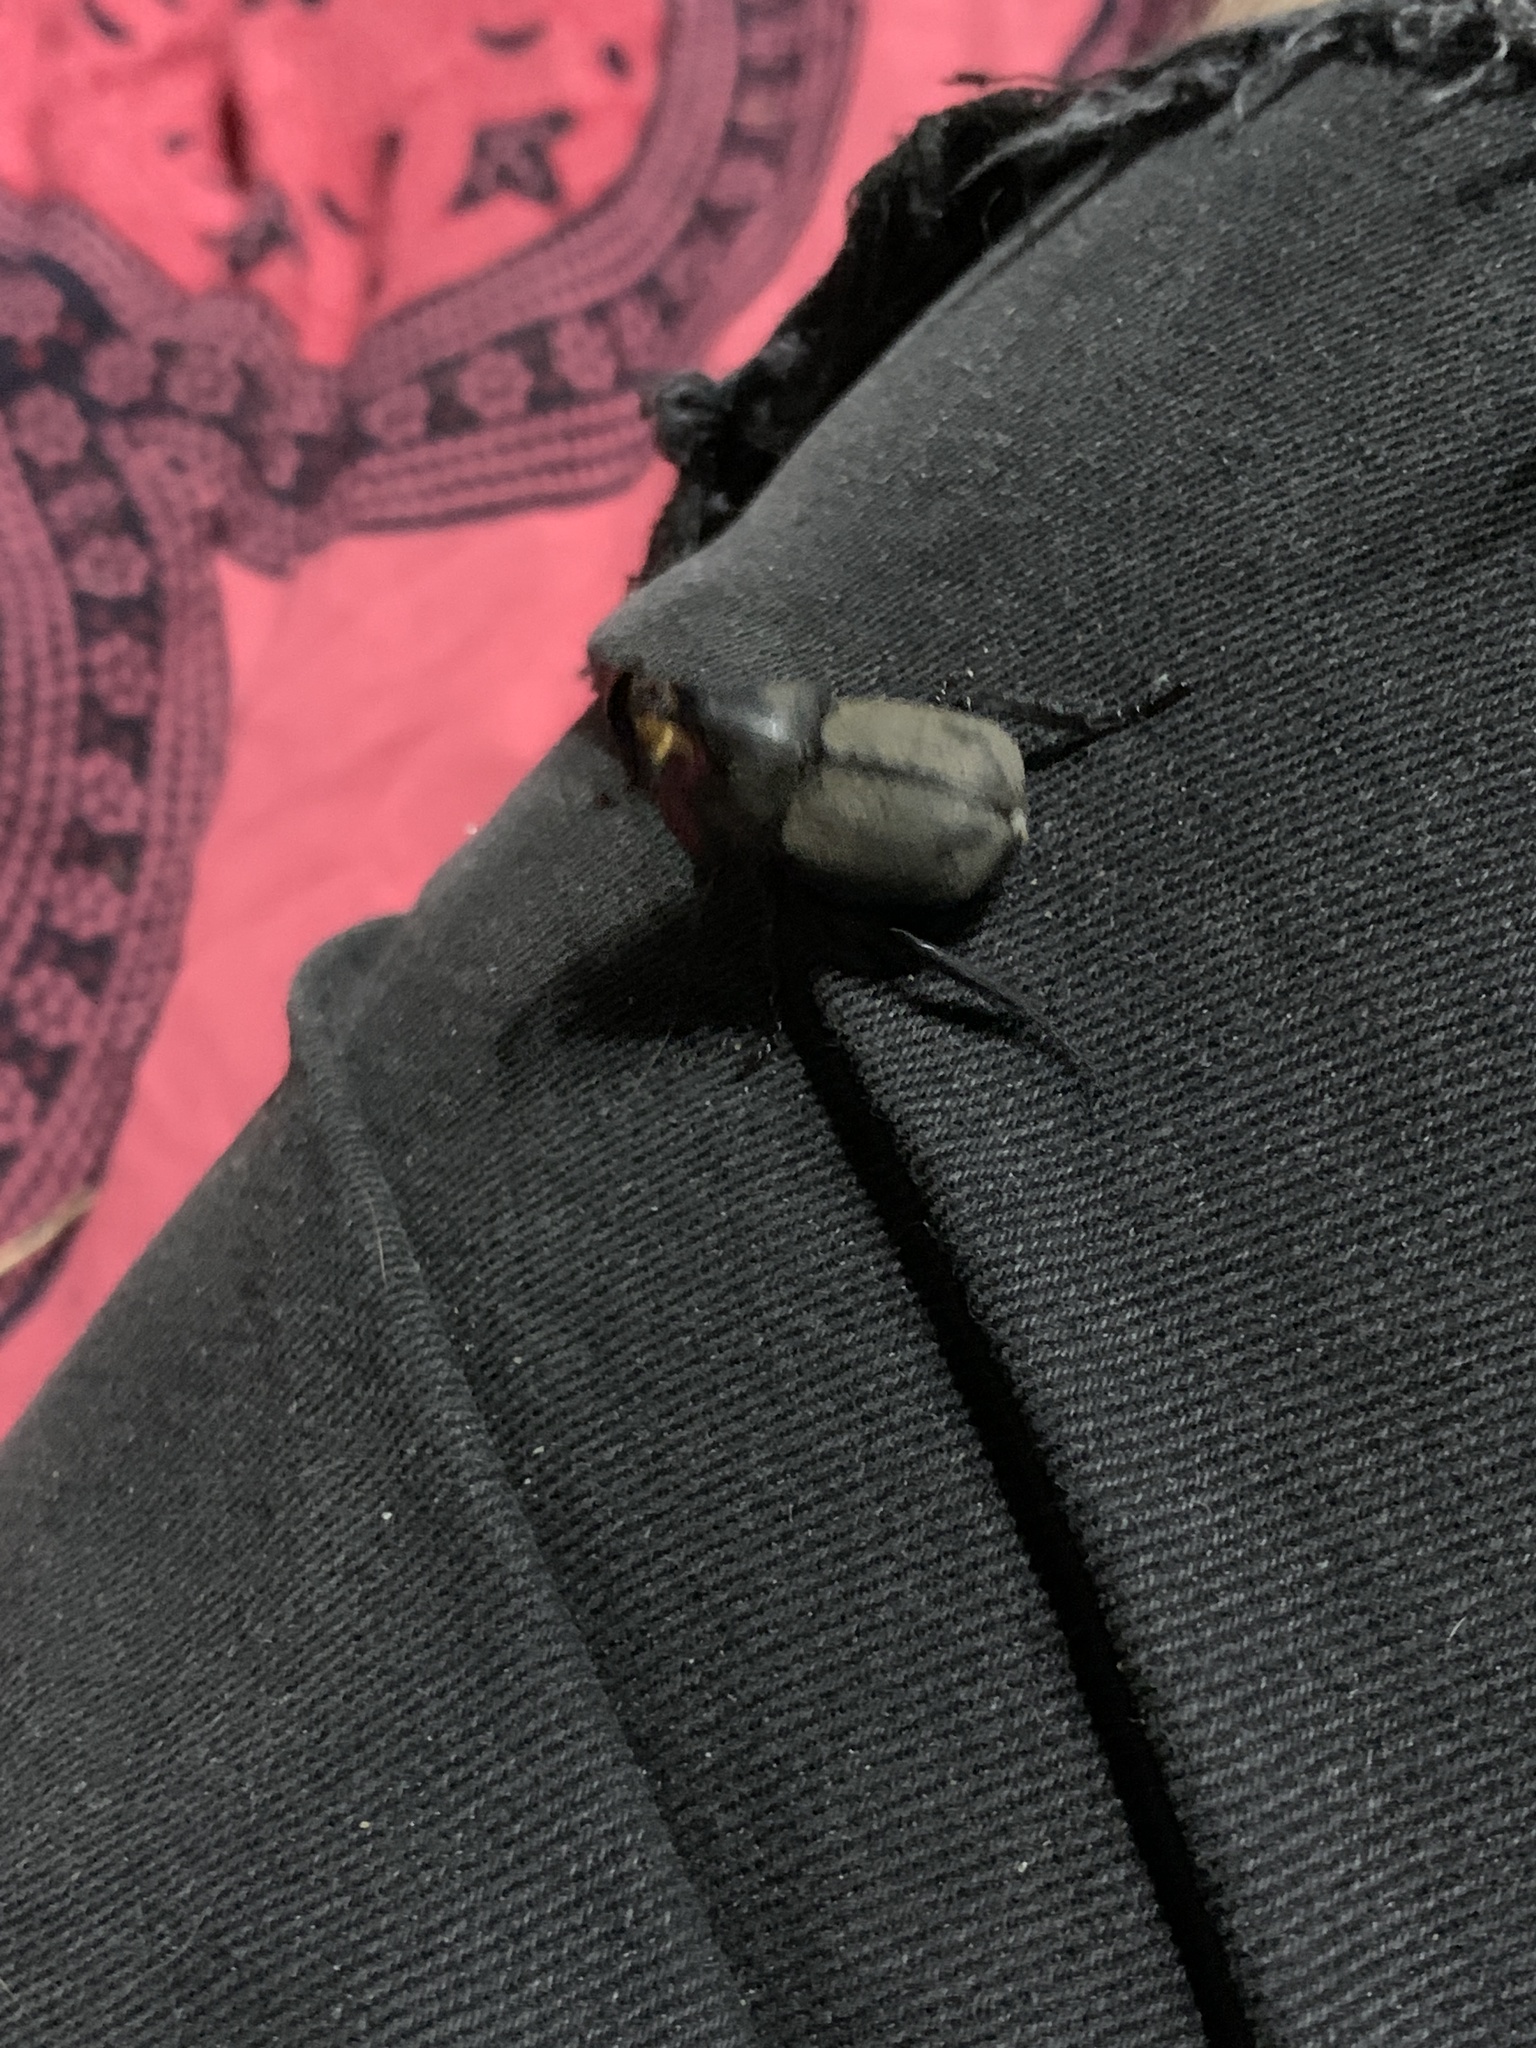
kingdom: Animalia
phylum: Arthropoda
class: Insecta
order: Coleoptera
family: Scarabaeidae
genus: Diloboderus
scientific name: Diloboderus abderus
